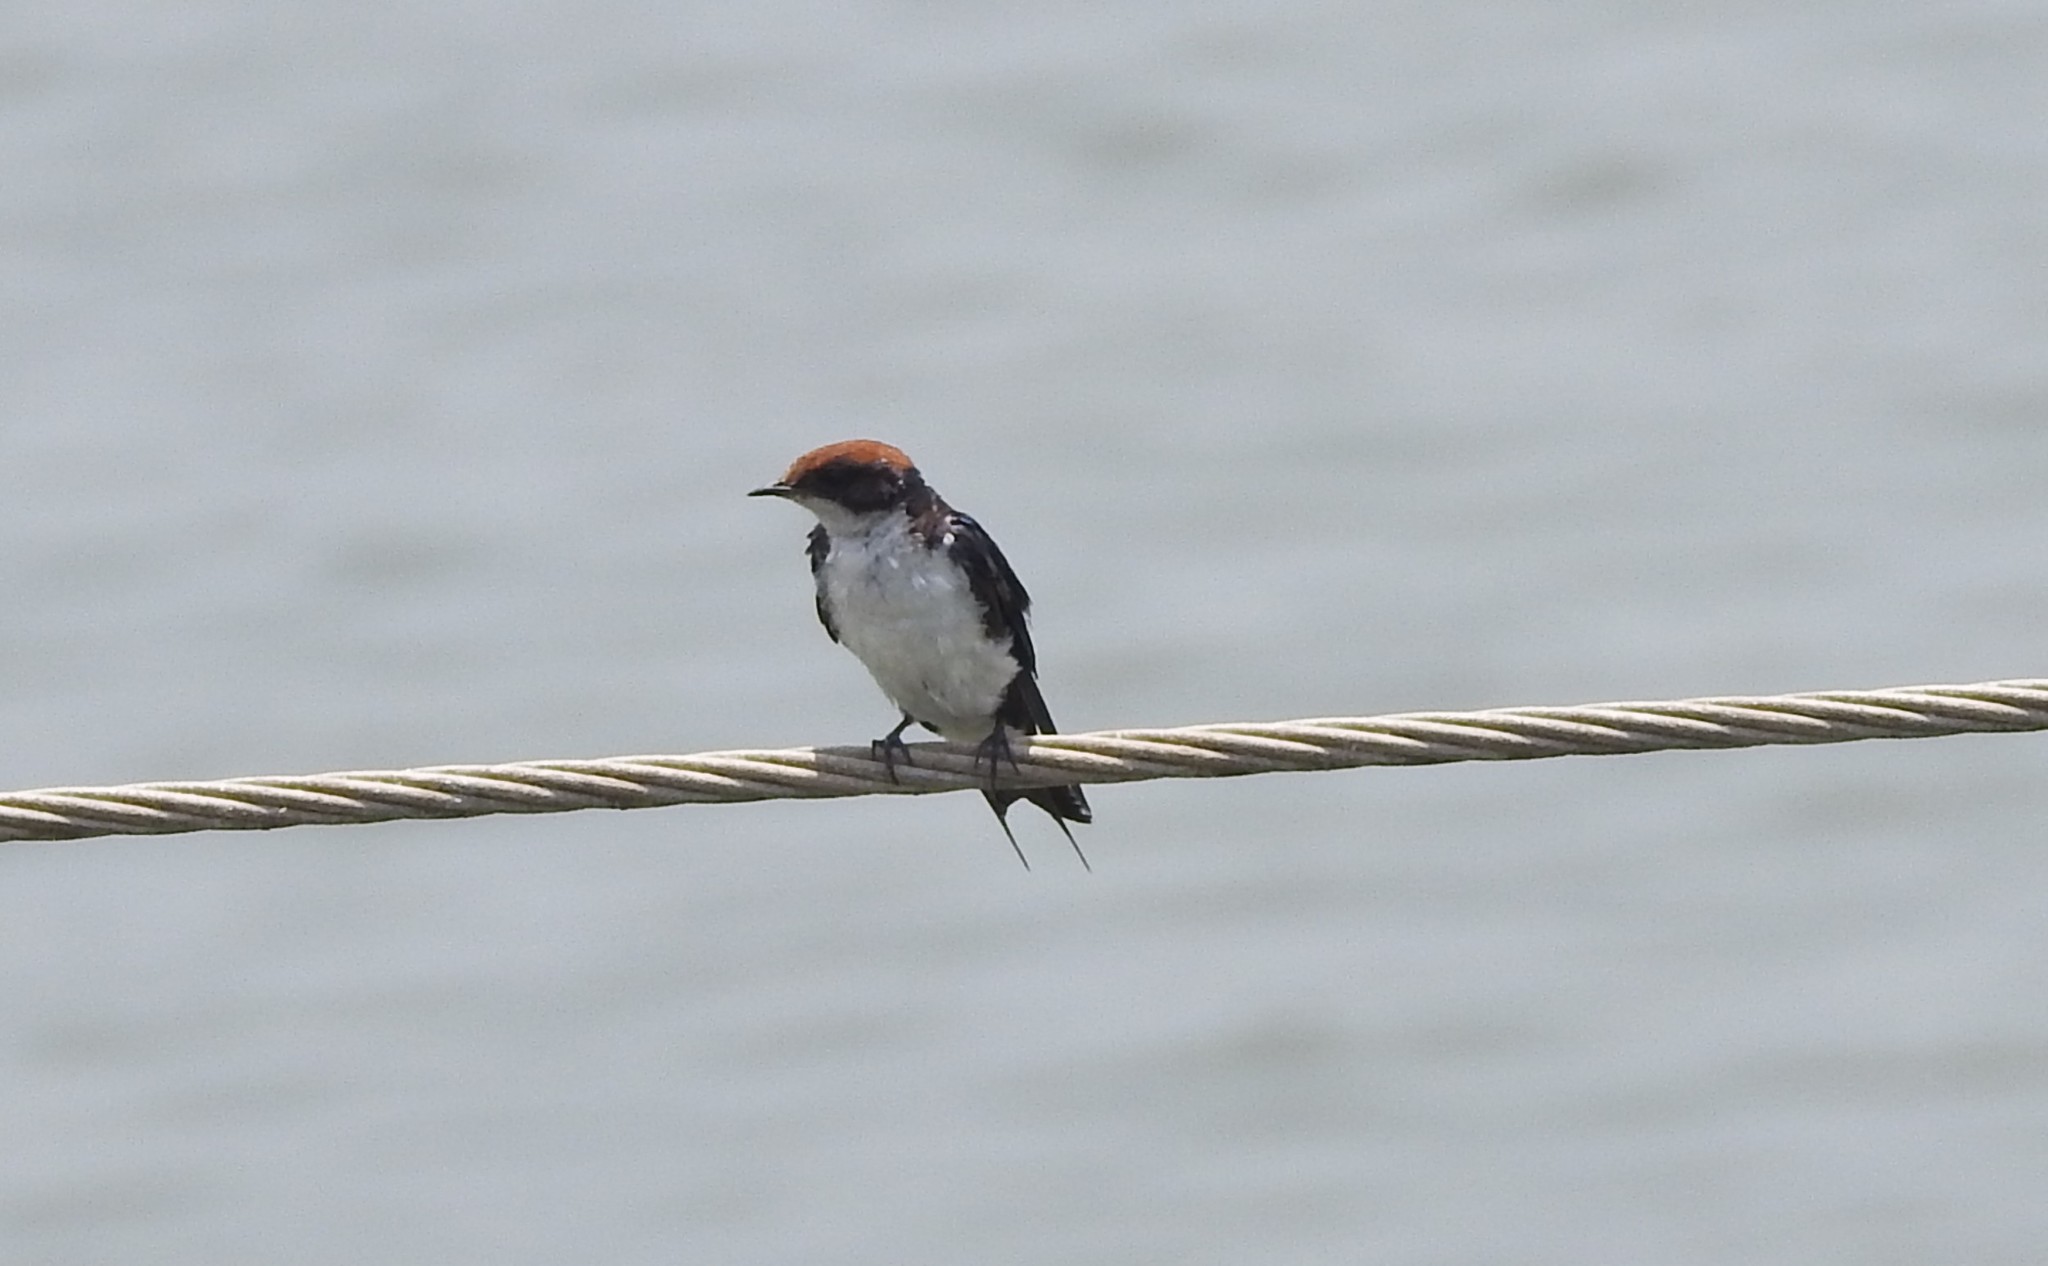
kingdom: Animalia
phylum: Chordata
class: Aves
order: Passeriformes
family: Hirundinidae
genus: Hirundo
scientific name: Hirundo smithii
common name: Wire-tailed swallow
